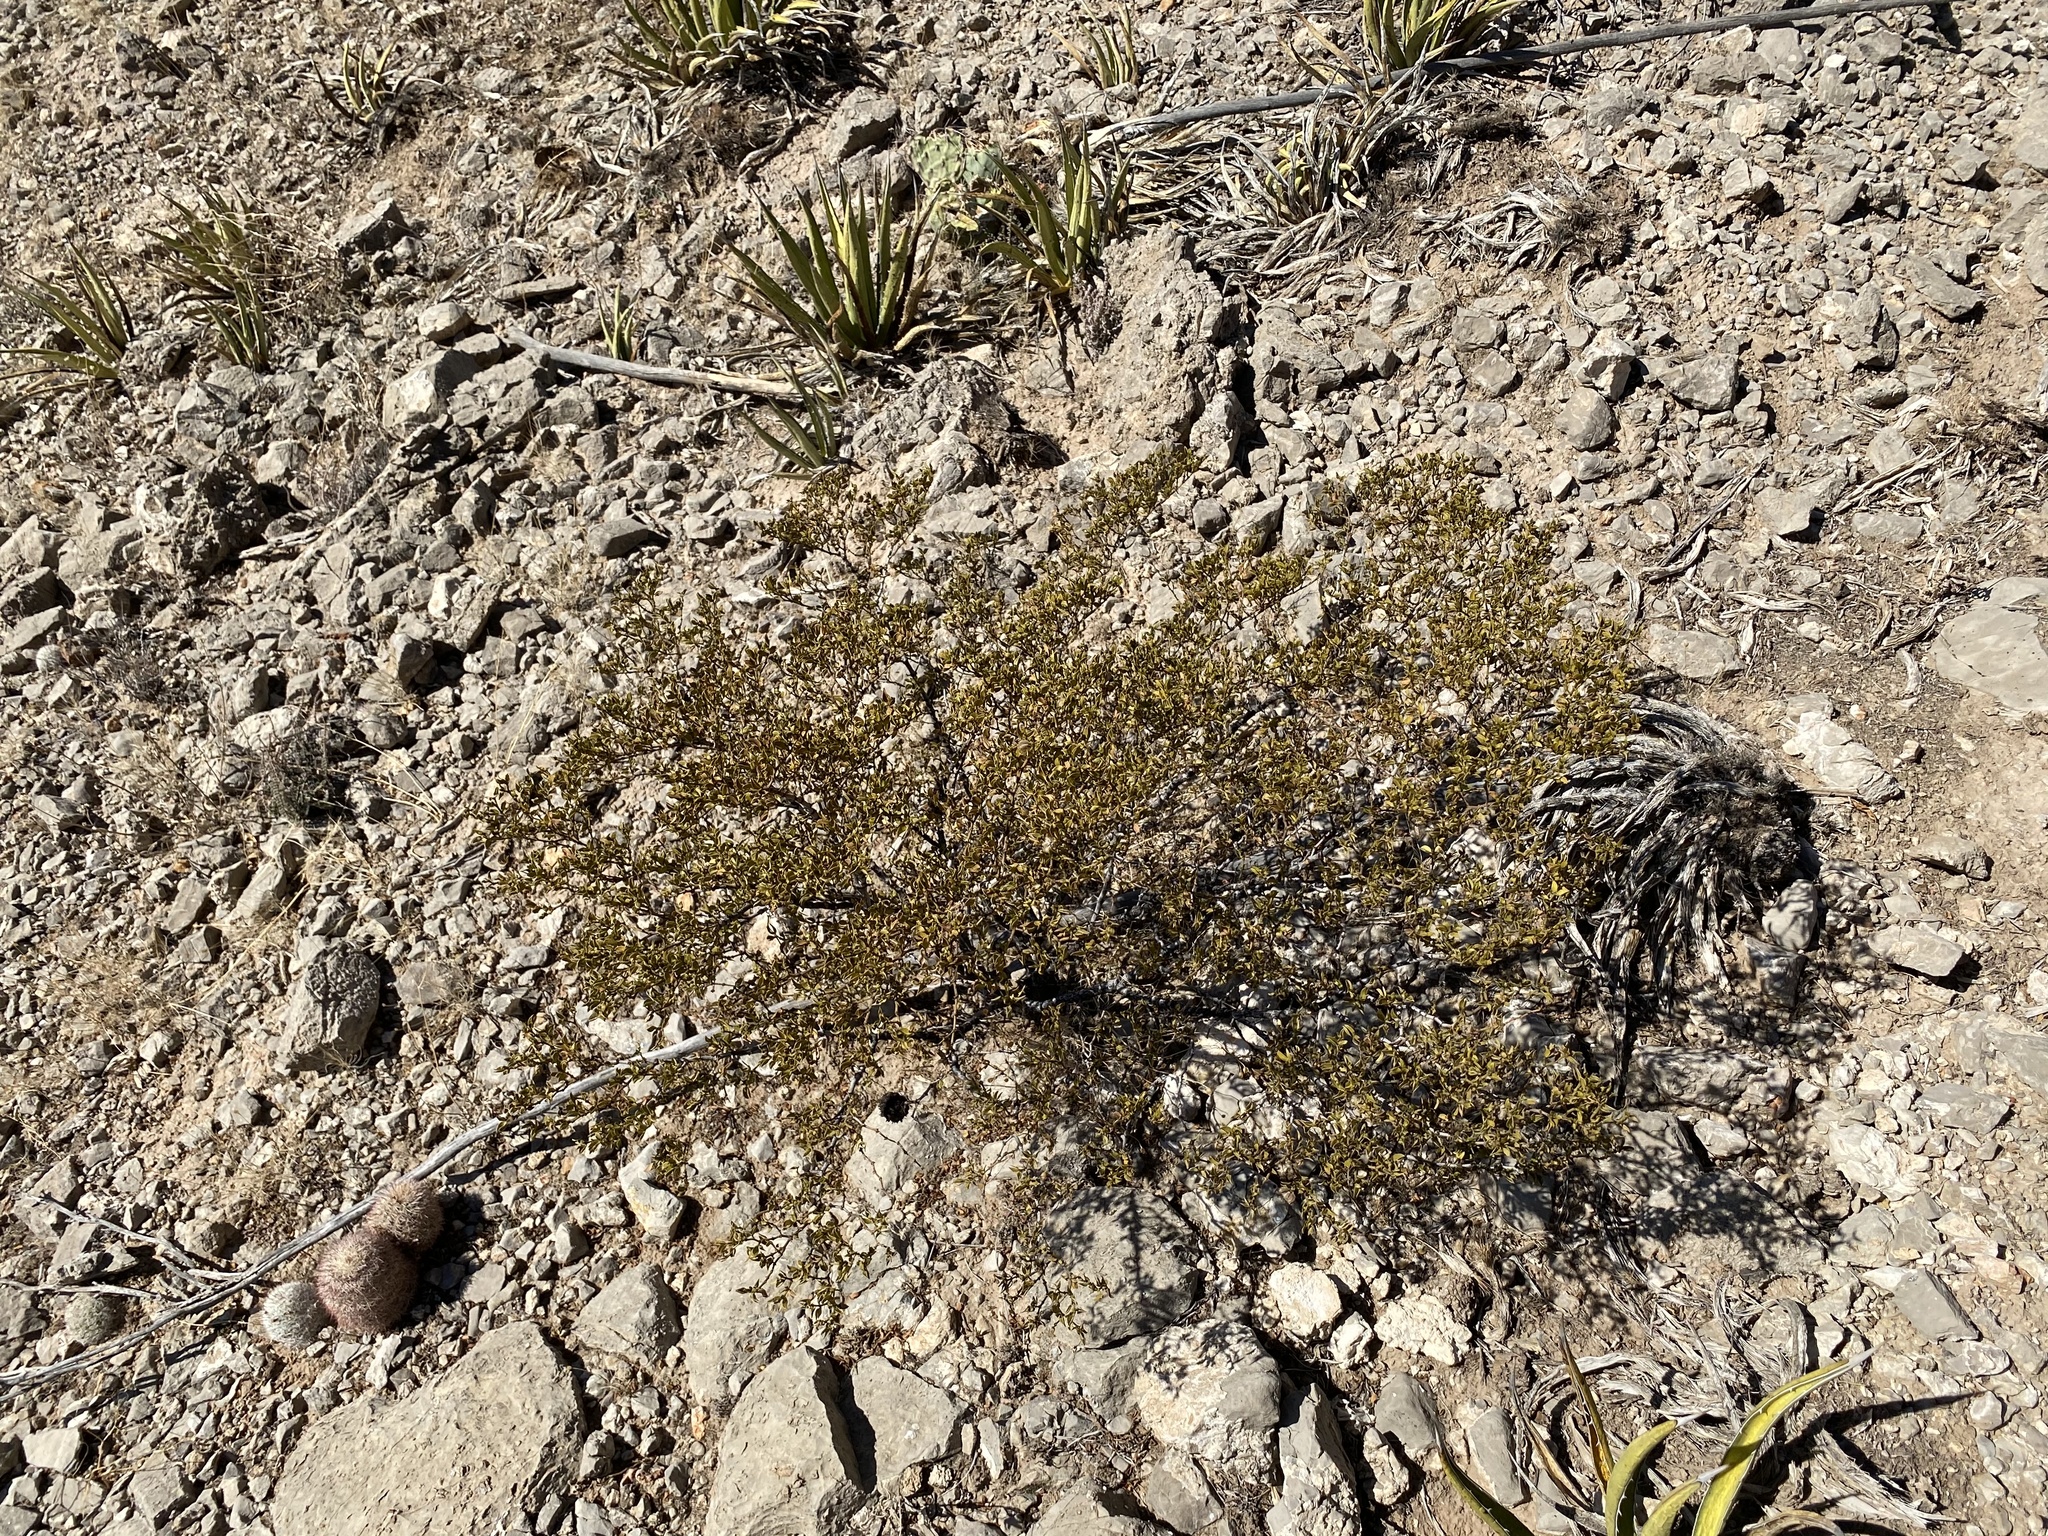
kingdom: Plantae
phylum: Tracheophyta
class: Magnoliopsida
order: Zygophyllales
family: Zygophyllaceae
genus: Larrea
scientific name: Larrea tridentata
